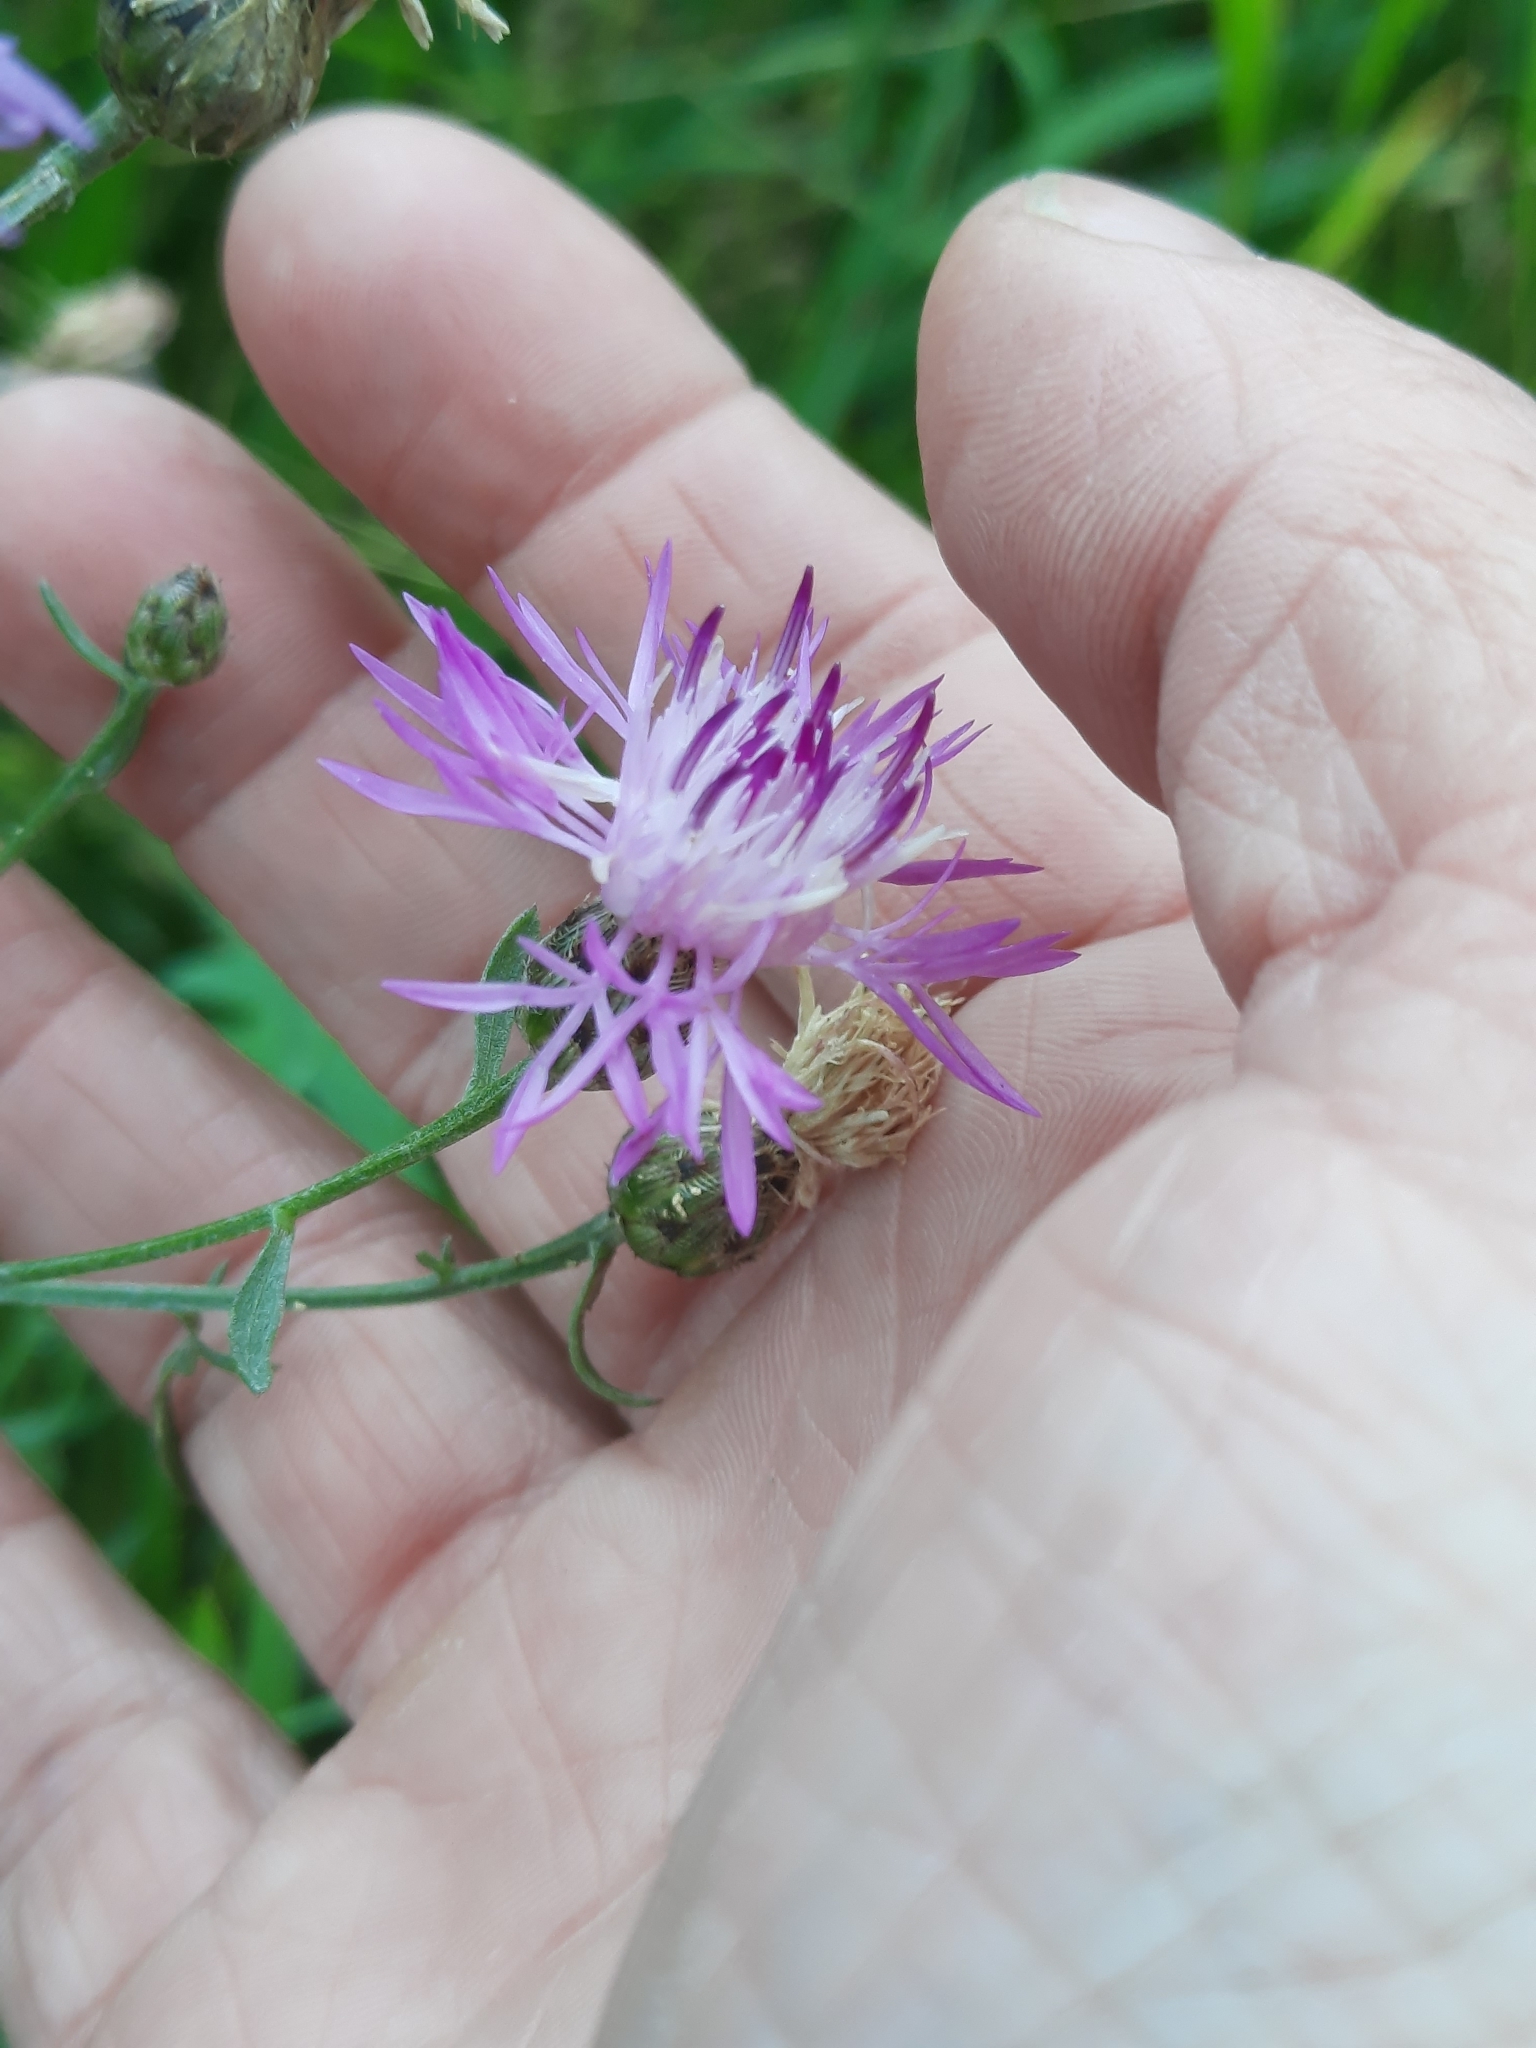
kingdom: Plantae
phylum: Tracheophyta
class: Magnoliopsida
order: Asterales
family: Asteraceae
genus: Centaurea
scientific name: Centaurea stoebe
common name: Spotted knapweed
